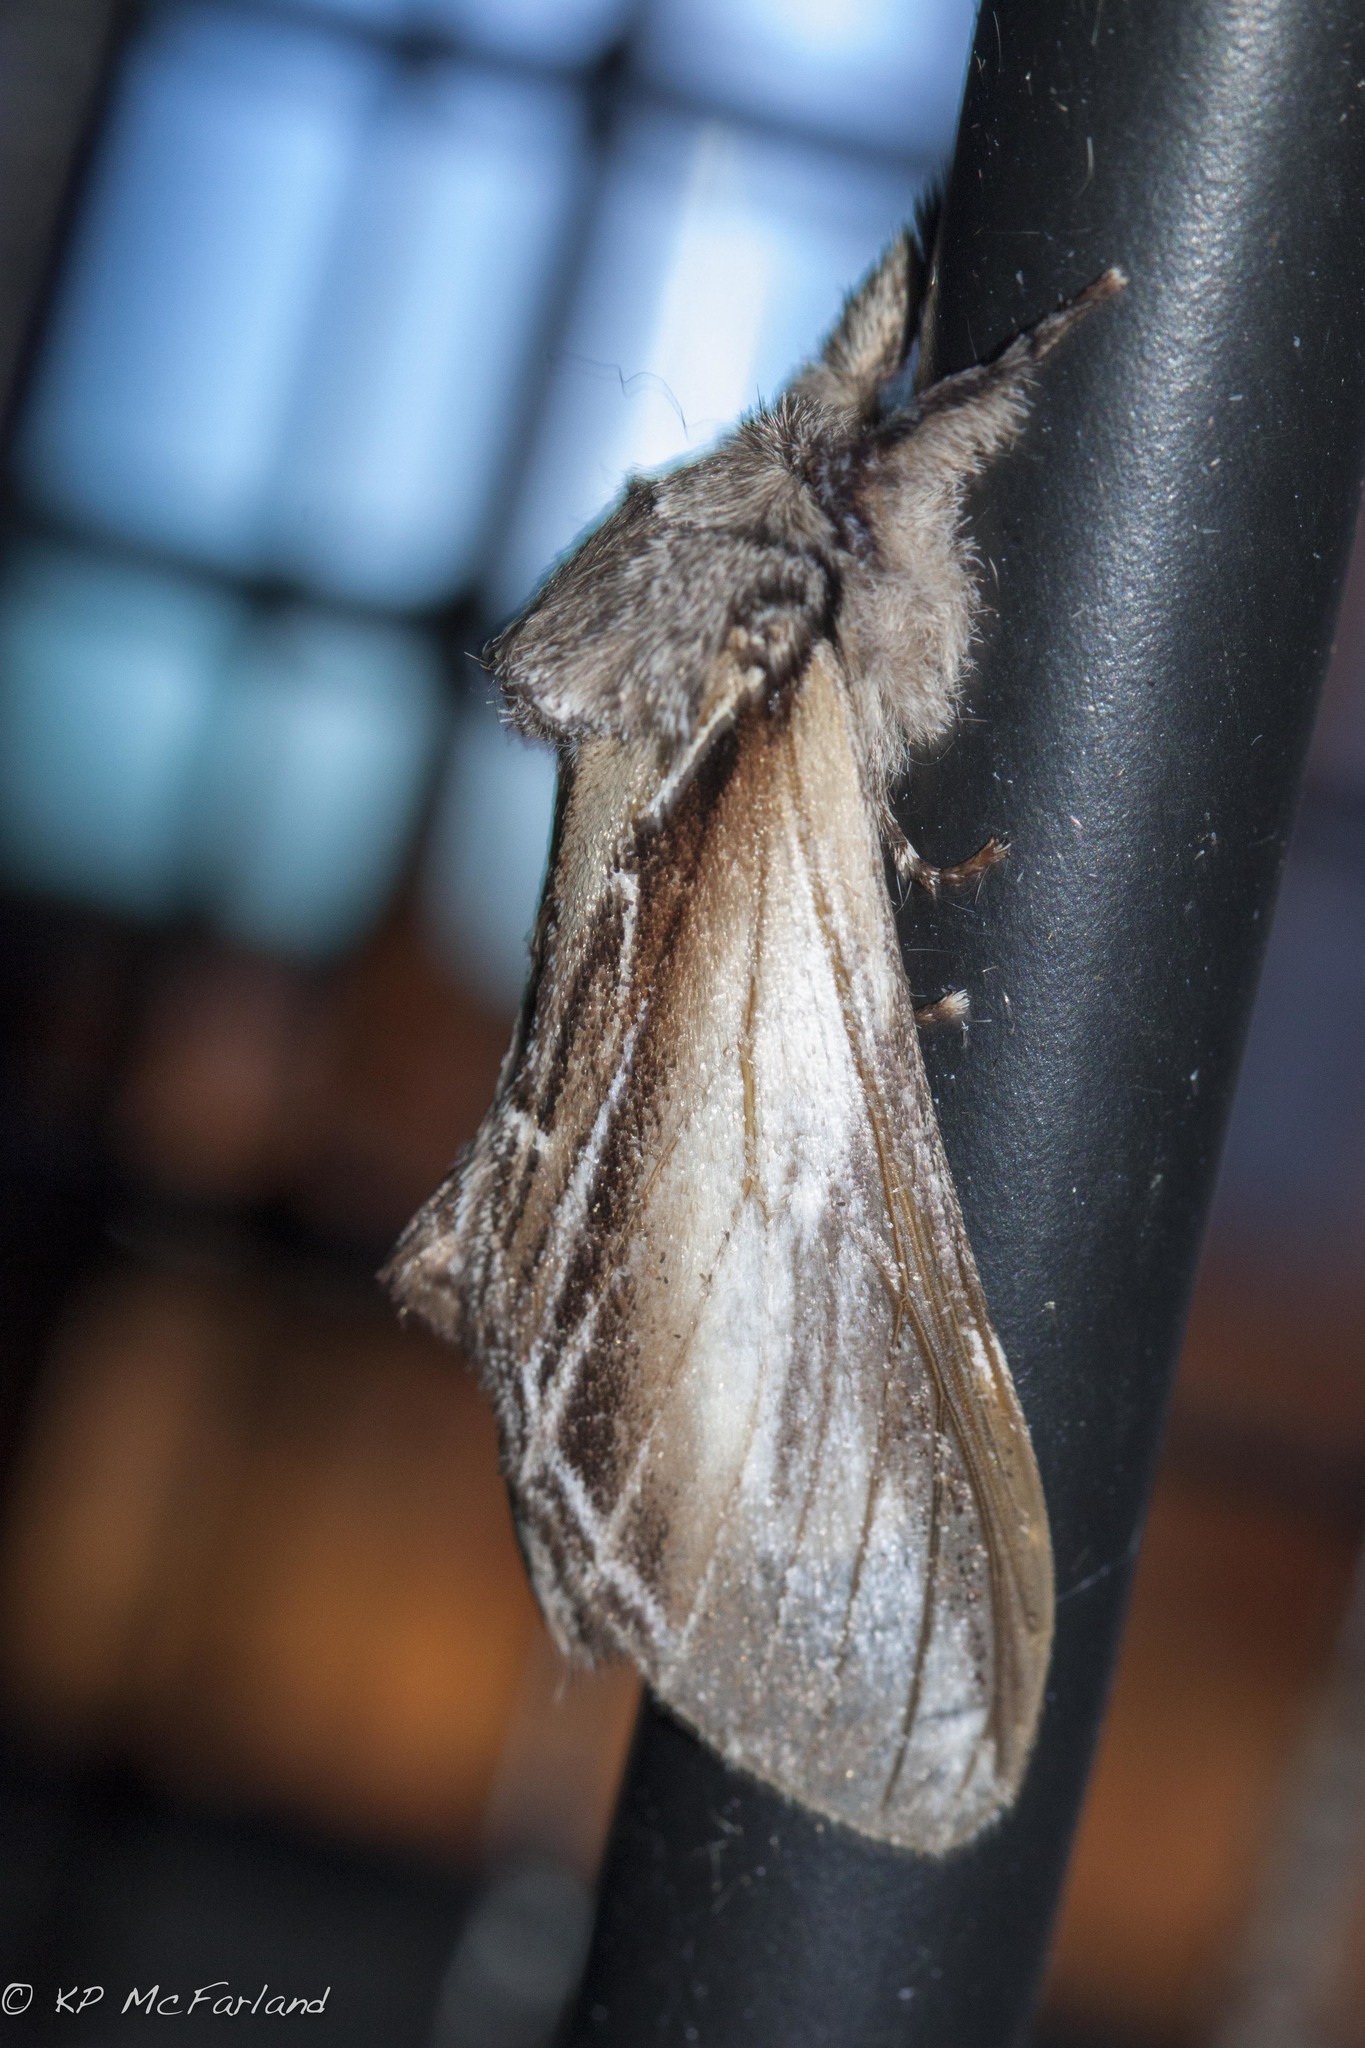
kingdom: Animalia
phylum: Arthropoda
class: Insecta
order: Lepidoptera
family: Notodontidae
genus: Pheosia
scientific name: Pheosia rimosa
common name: Black-rimmed prominent
